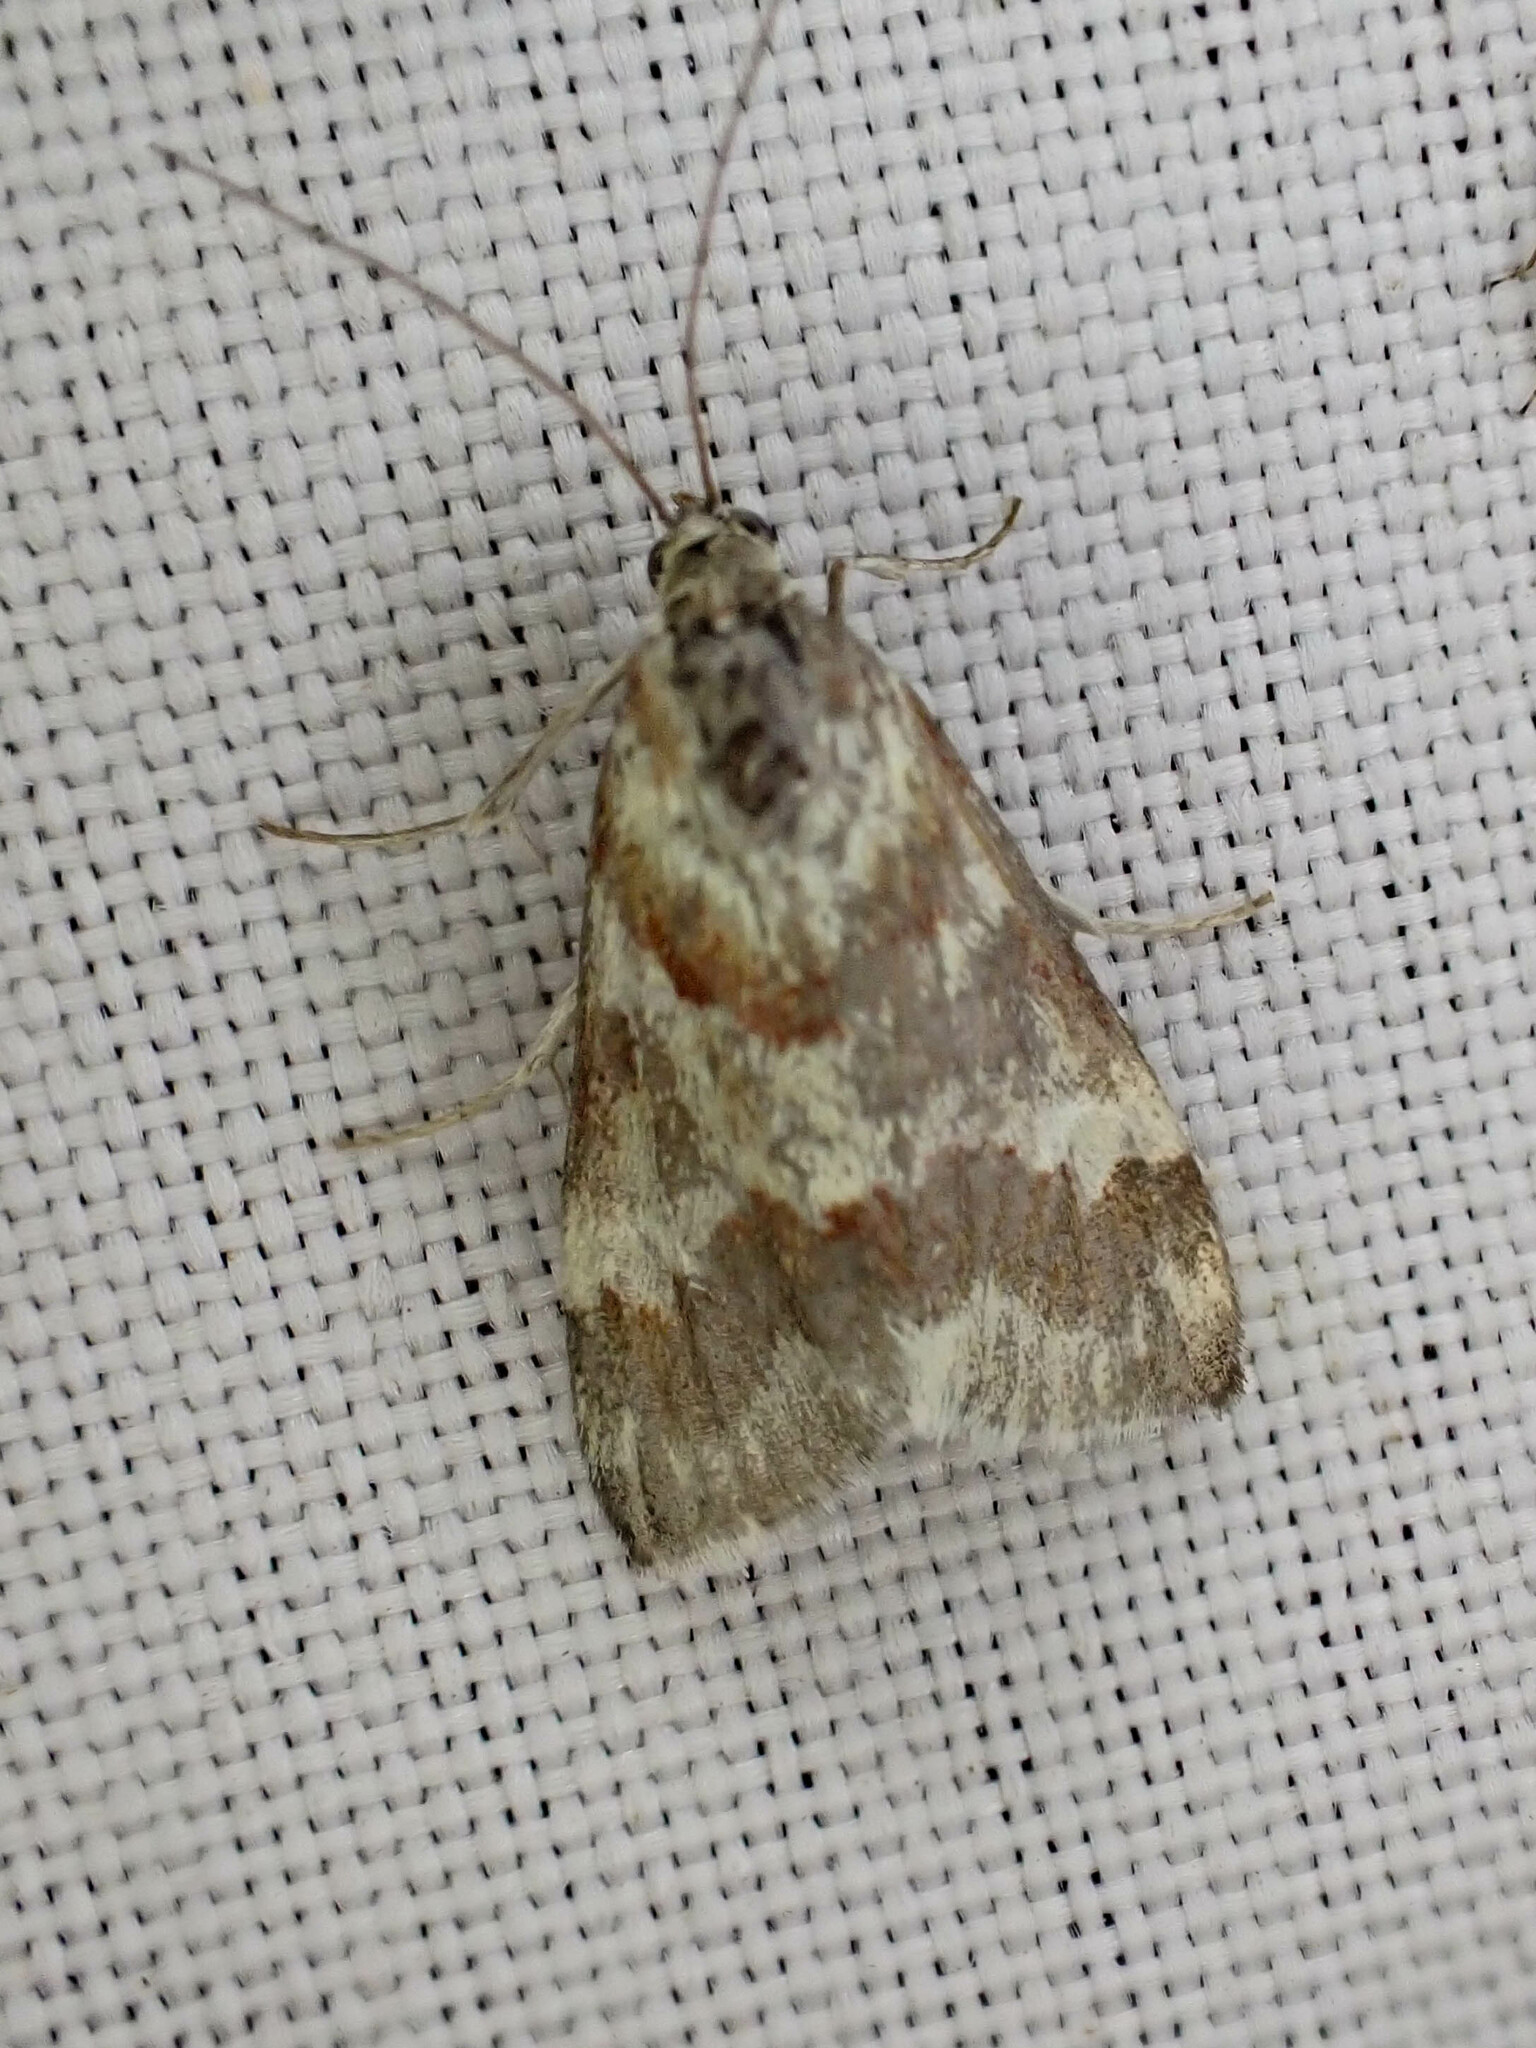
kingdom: Animalia
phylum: Arthropoda
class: Insecta
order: Lepidoptera
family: Crambidae
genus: Noctuelia
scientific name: Noctuelia Mimoschinia rufofascialis
